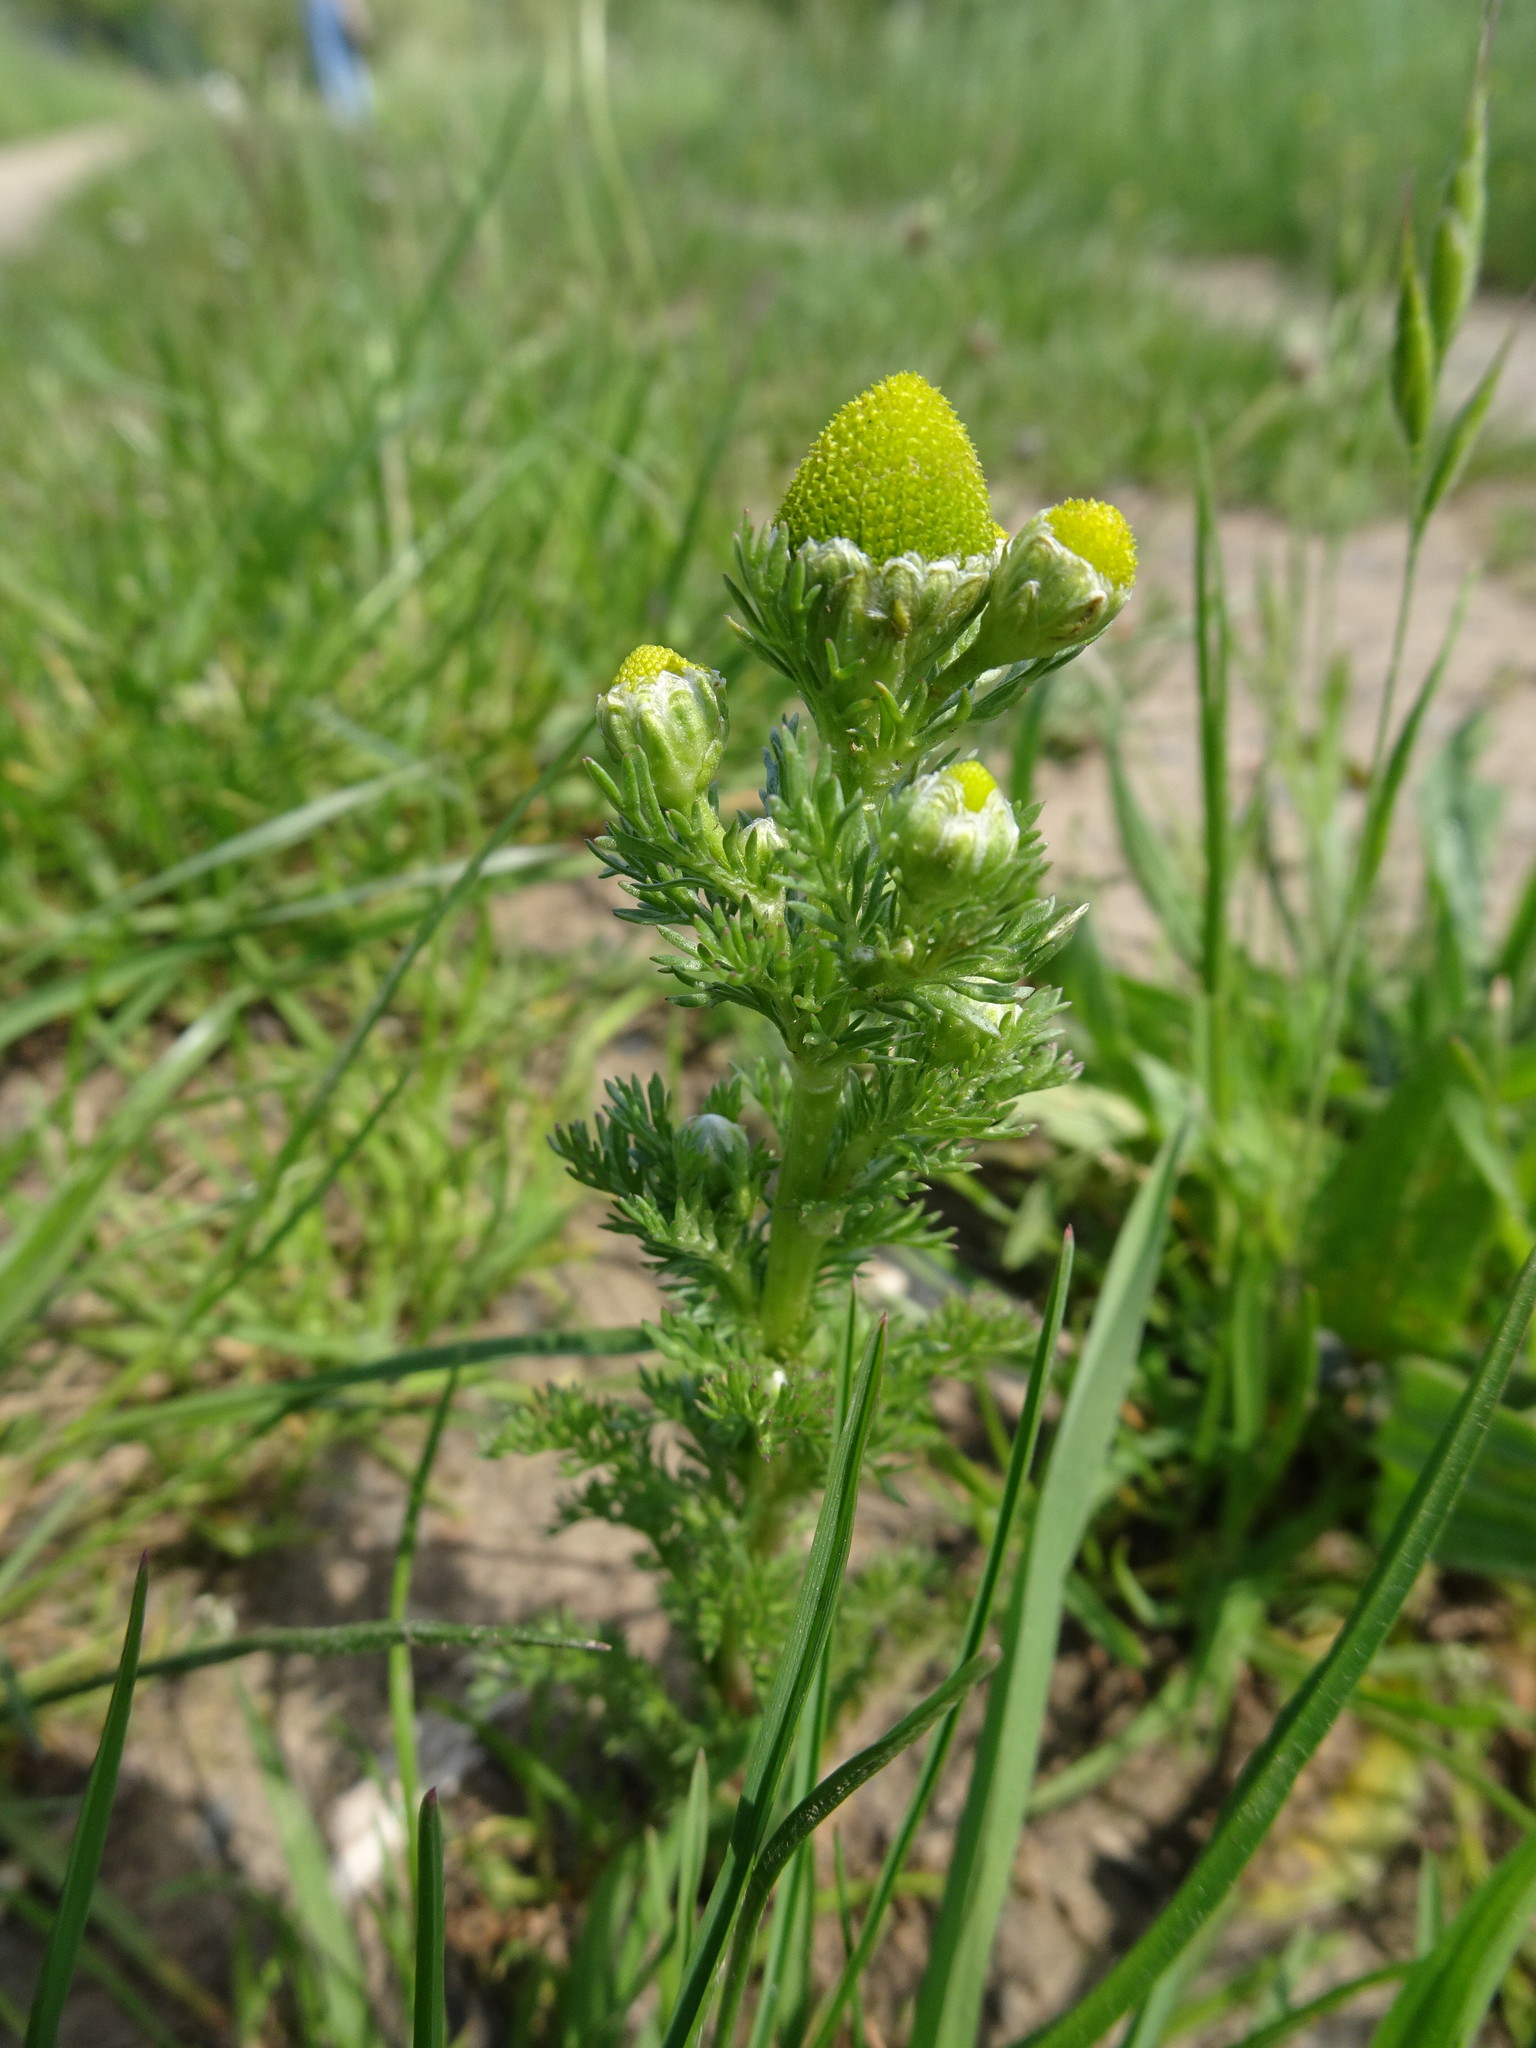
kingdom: Plantae
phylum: Tracheophyta
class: Magnoliopsida
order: Asterales
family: Asteraceae
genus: Matricaria
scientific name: Matricaria discoidea
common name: Disc mayweed
